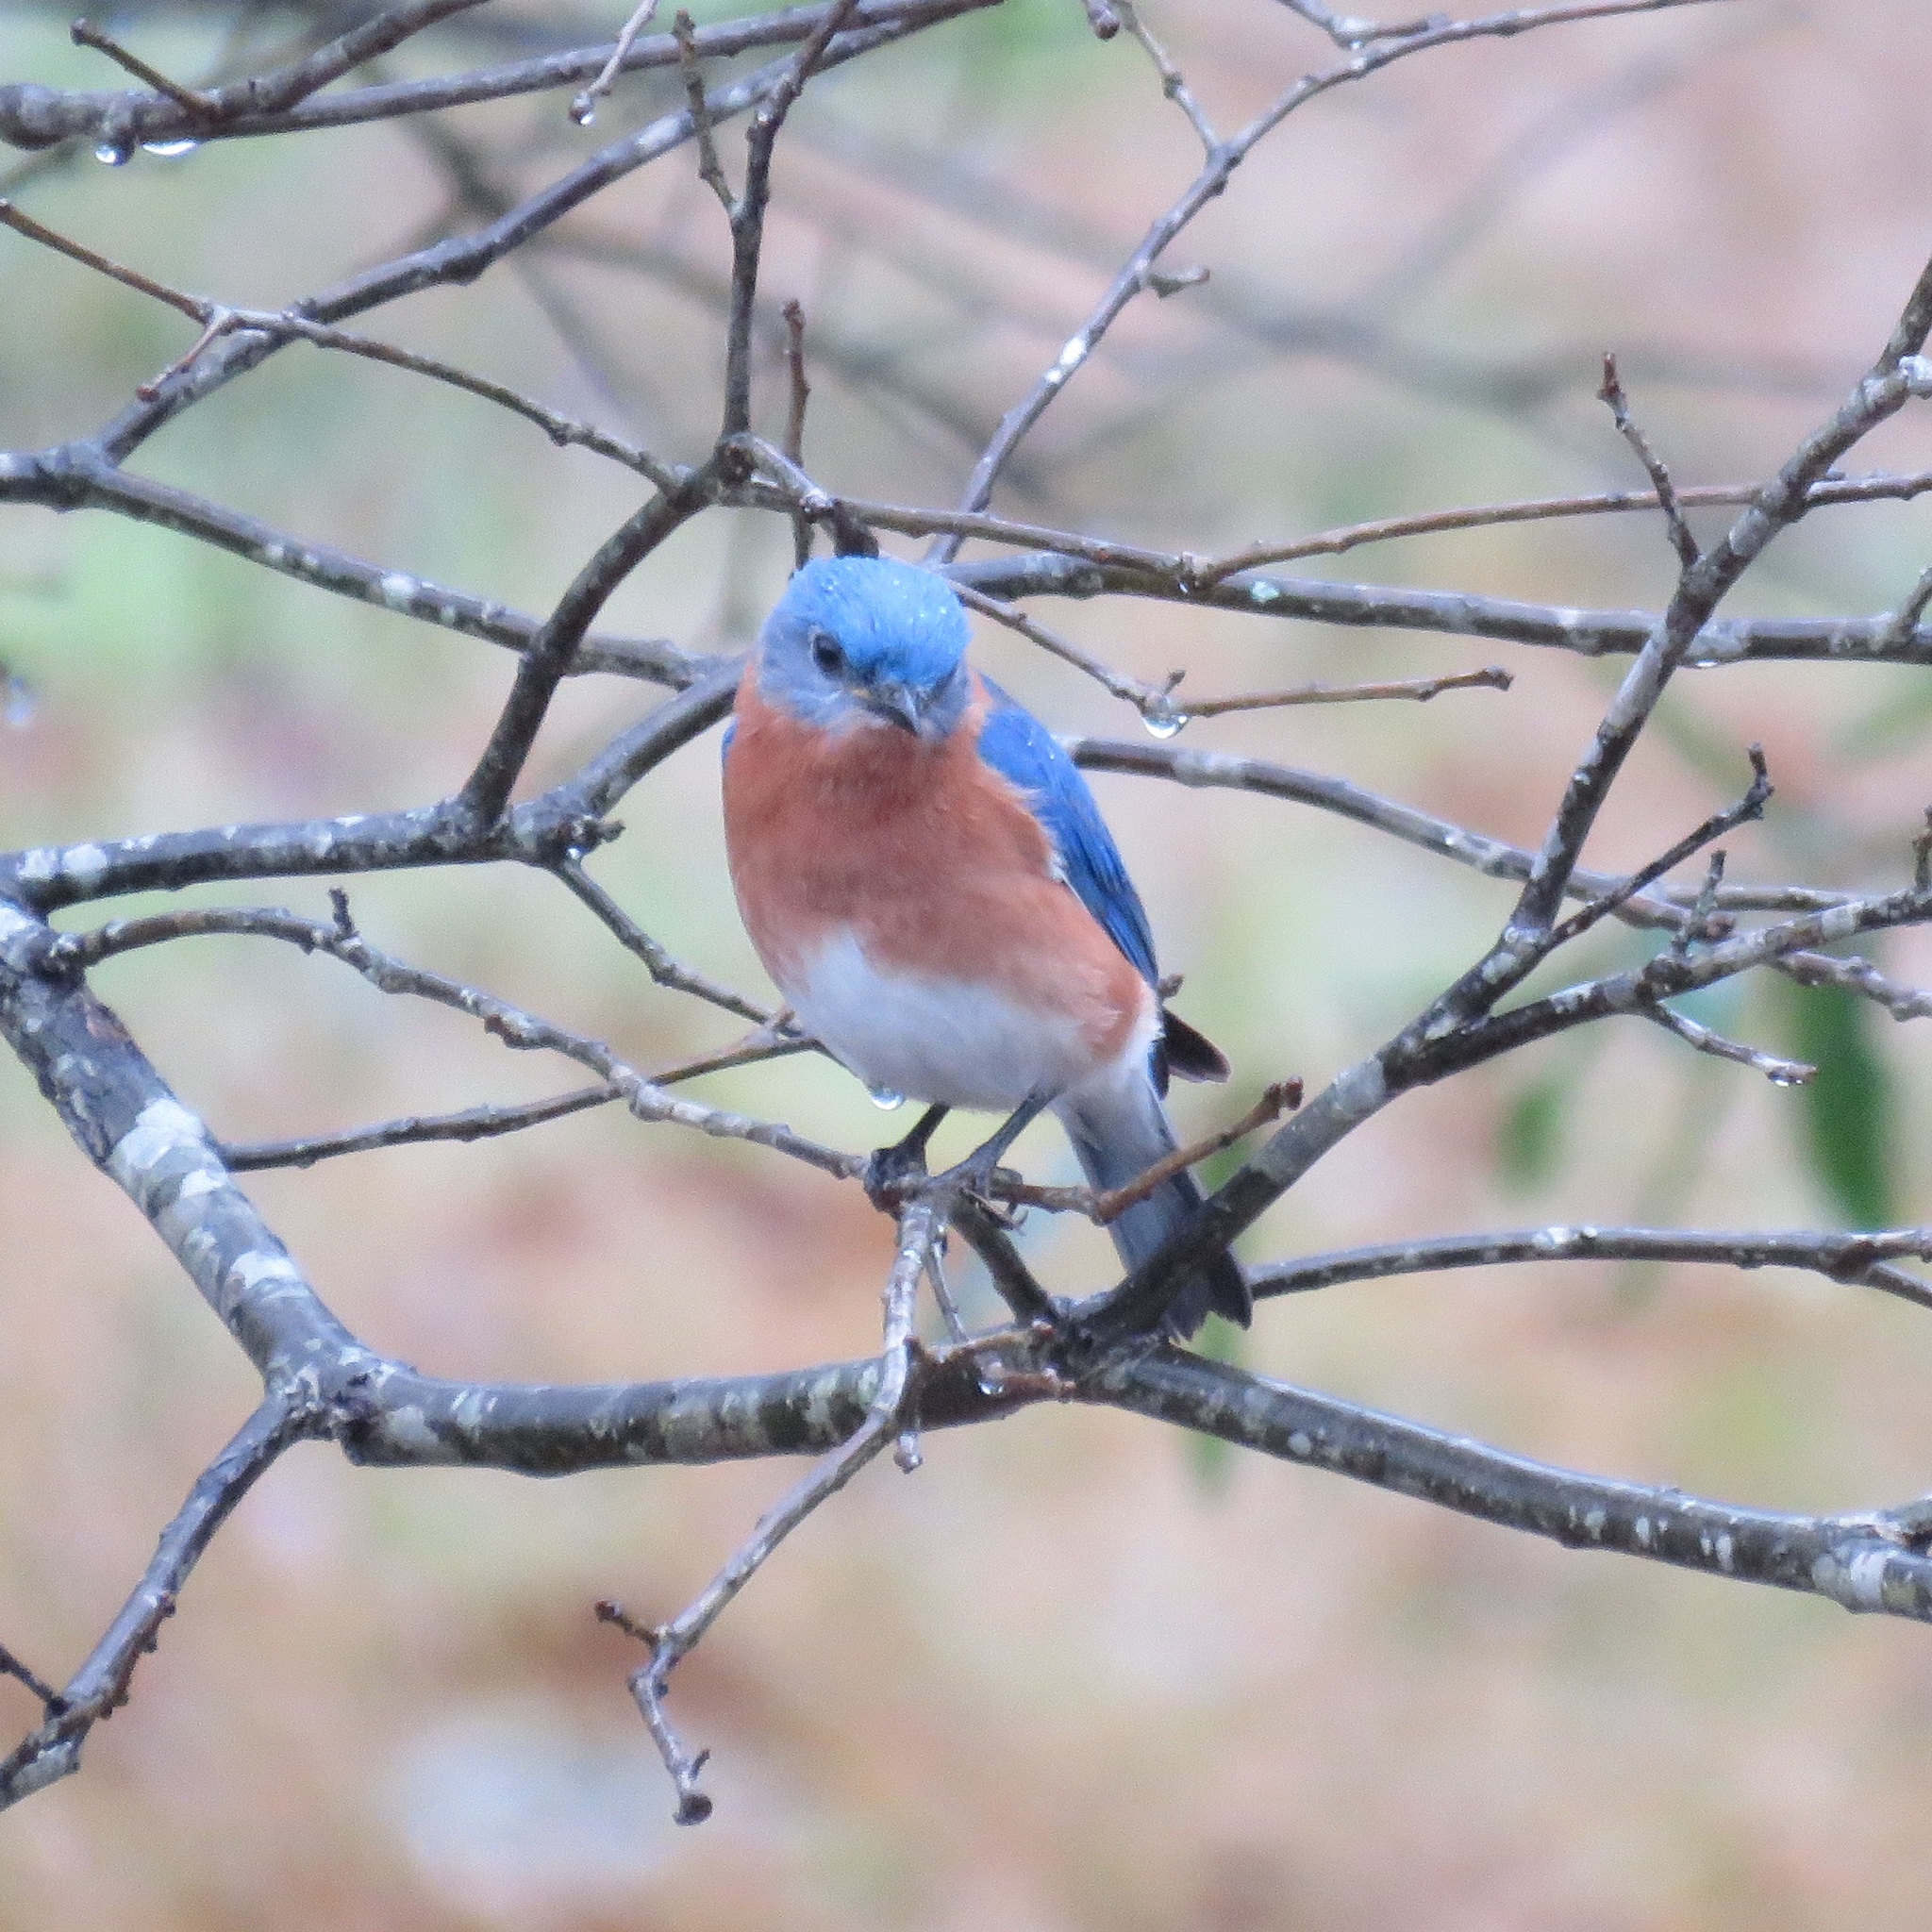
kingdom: Animalia
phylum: Chordata
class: Aves
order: Passeriformes
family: Turdidae
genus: Sialia
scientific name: Sialia sialis
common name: Eastern bluebird
